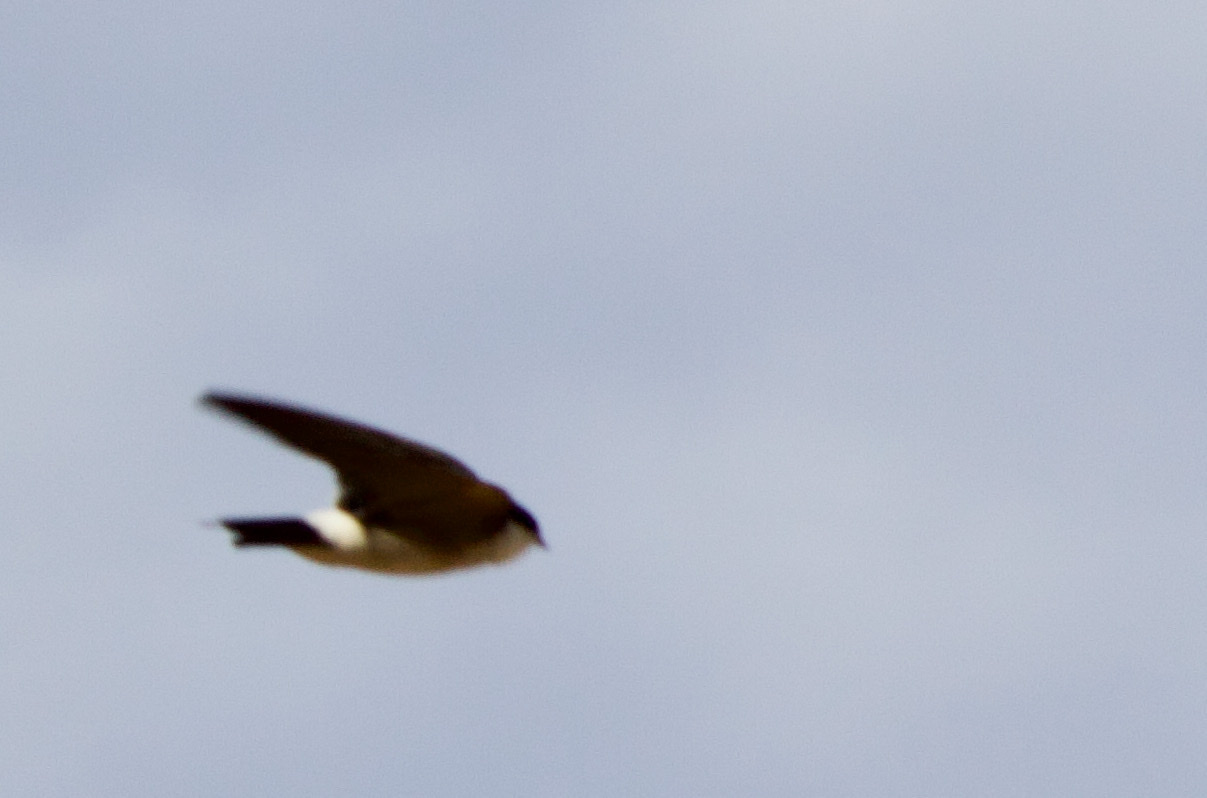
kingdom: Animalia
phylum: Chordata
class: Aves
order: Passeriformes
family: Hirundinidae
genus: Tachycineta
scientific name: Tachycineta leucopyga
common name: Chilean swallow
